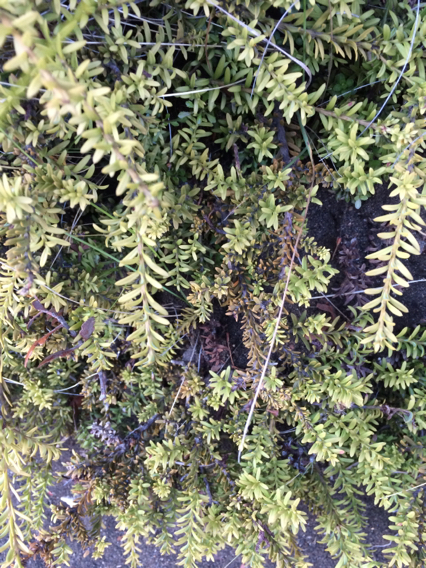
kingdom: Plantae
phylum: Tracheophyta
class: Pinopsida
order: Pinales
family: Podocarpaceae
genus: Podocarpus
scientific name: Podocarpus nivalis
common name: Alpine totara
